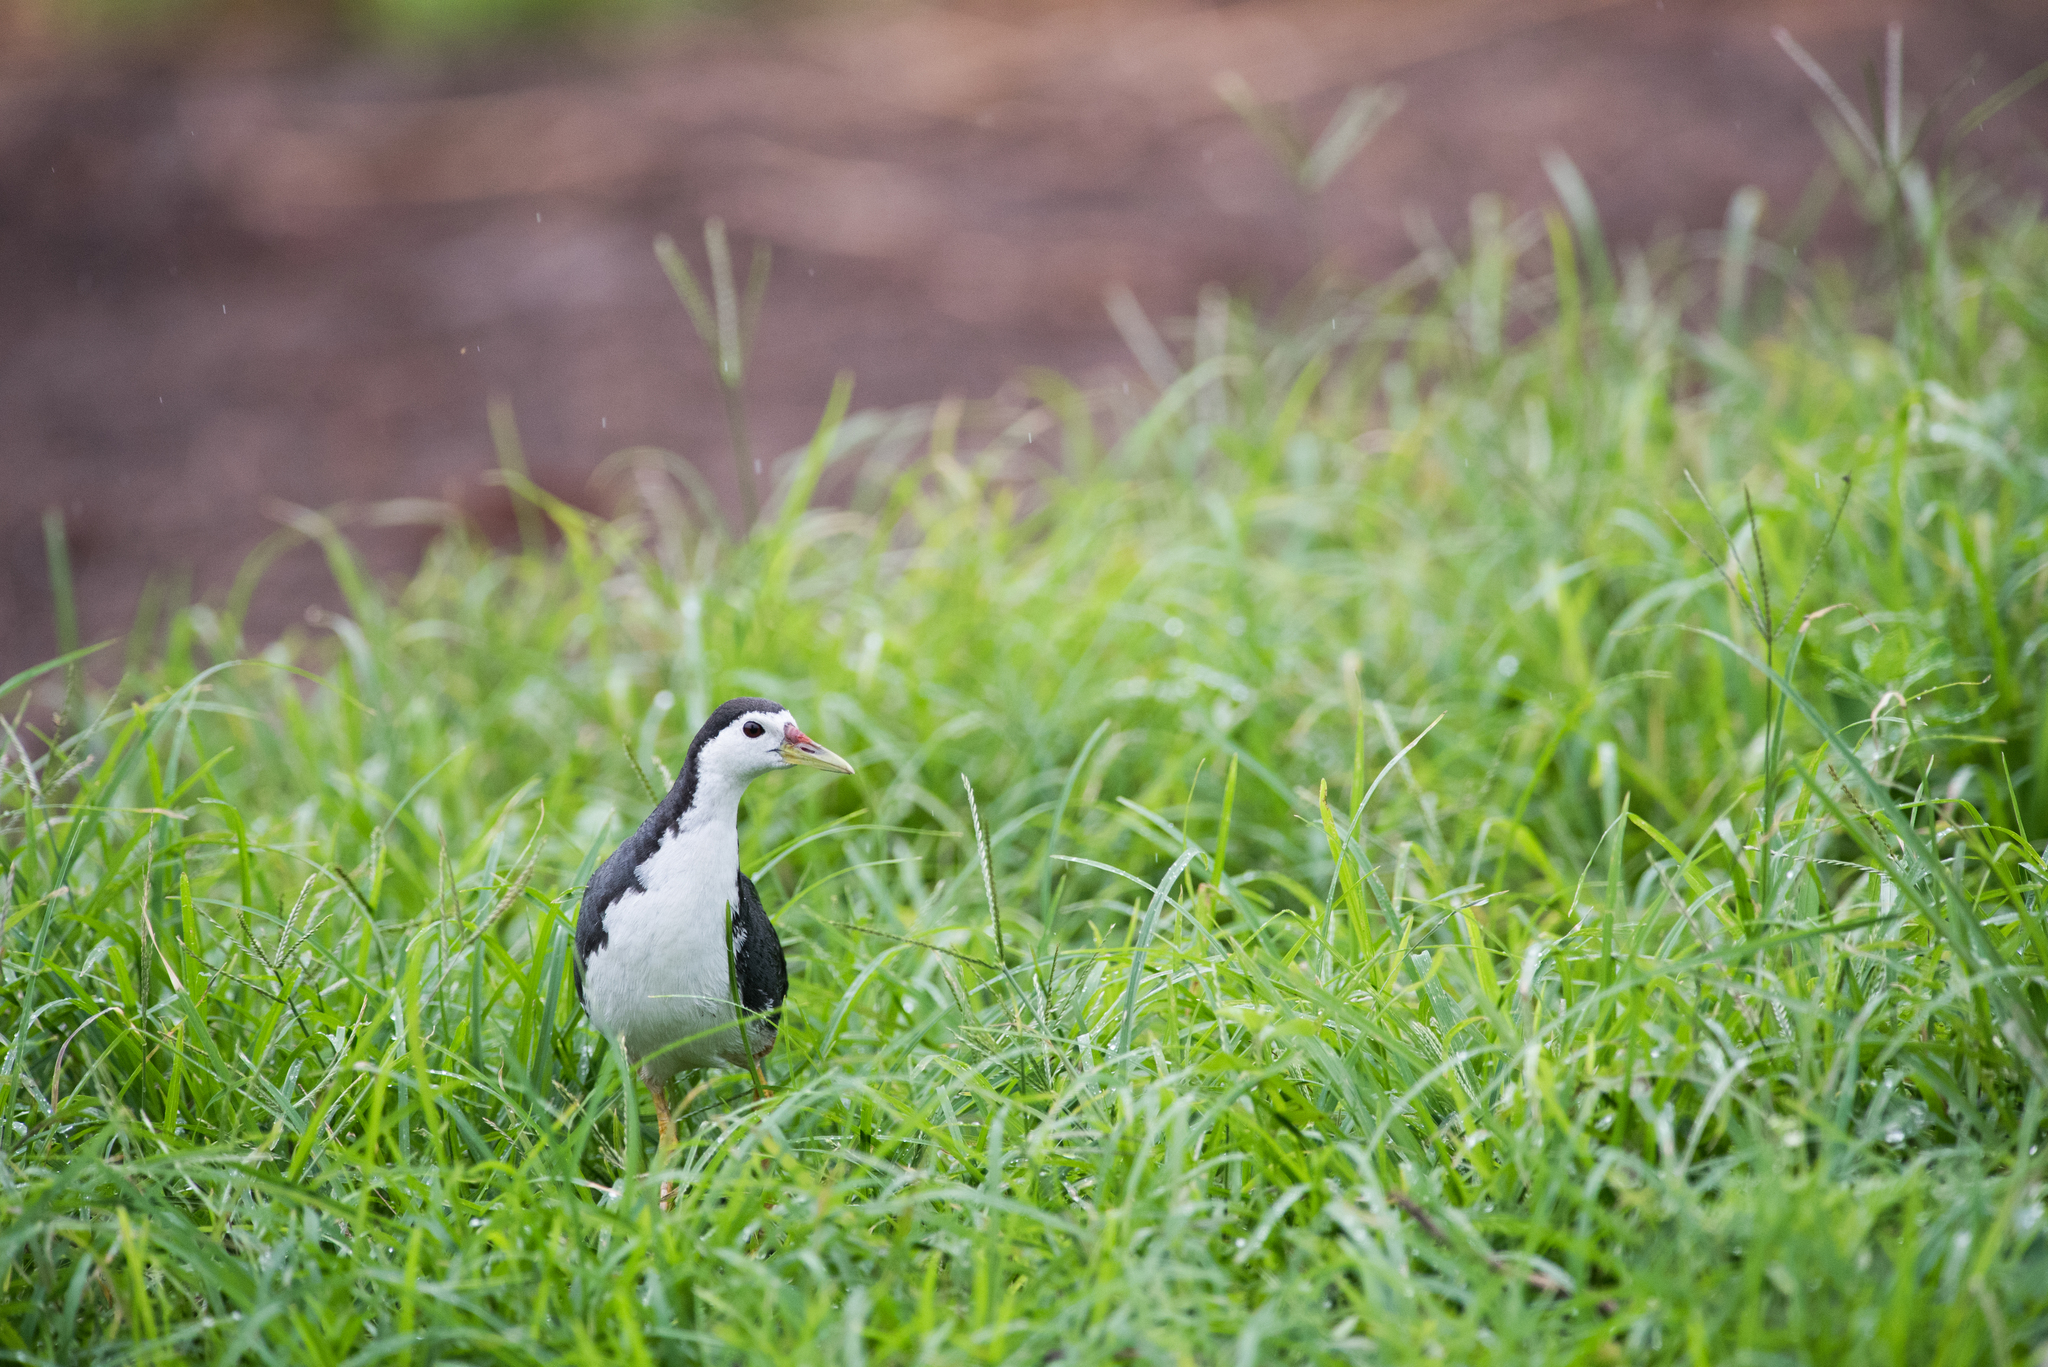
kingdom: Animalia
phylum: Chordata
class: Aves
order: Gruiformes
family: Rallidae
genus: Amaurornis
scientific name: Amaurornis phoenicurus
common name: White-breasted waterhen
